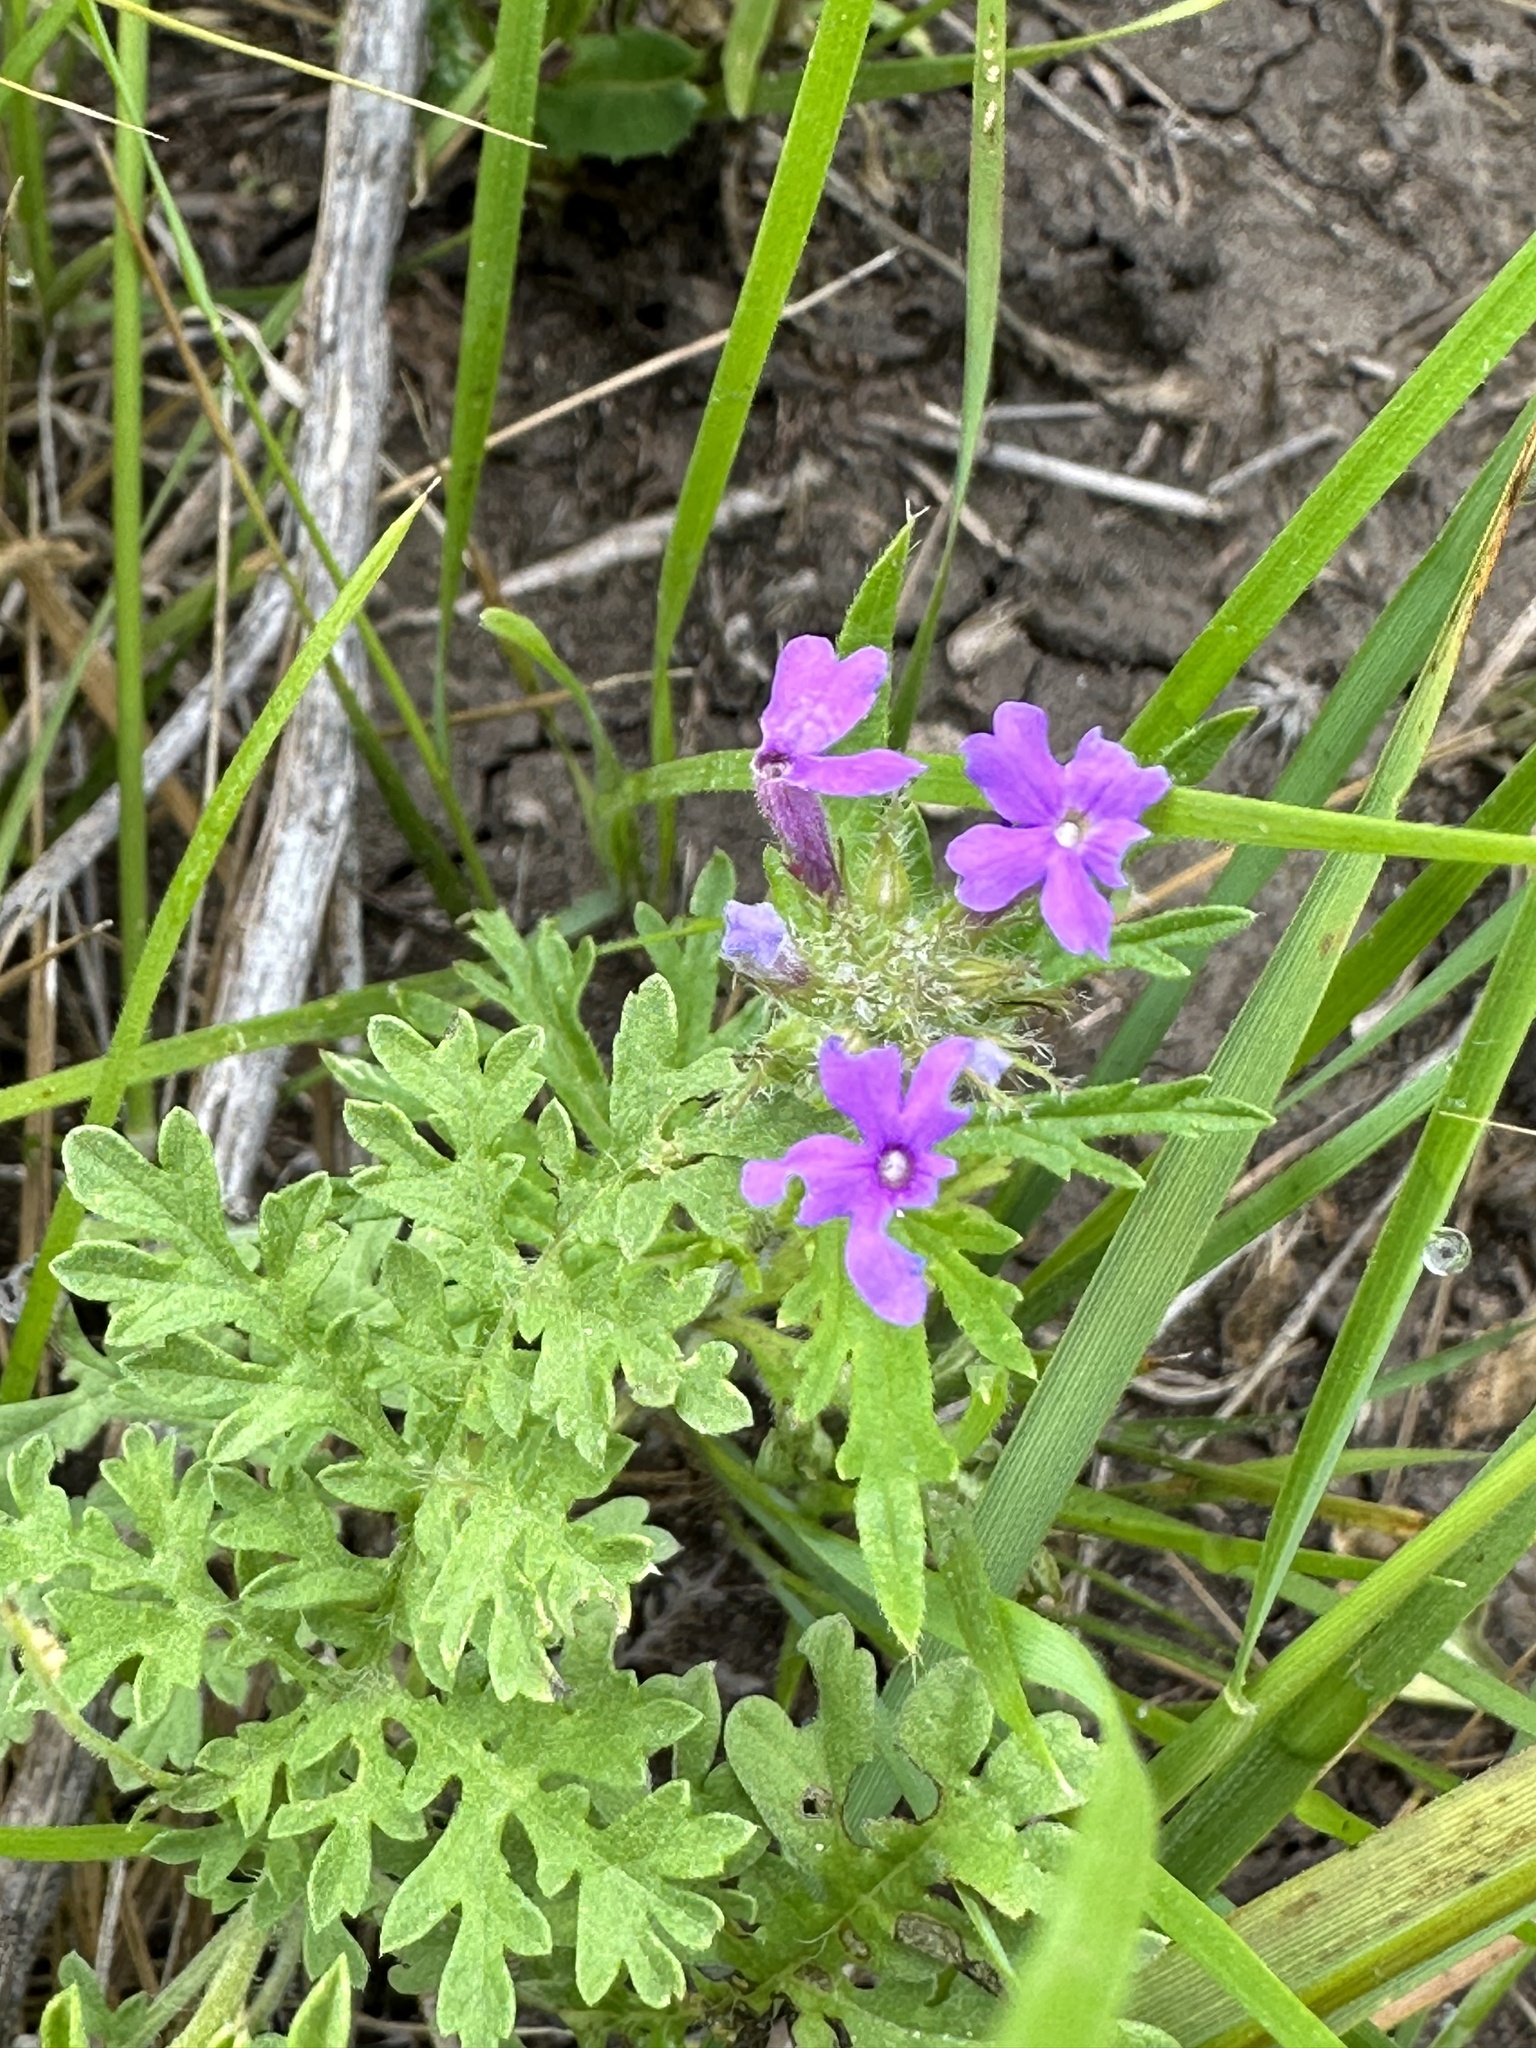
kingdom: Plantae
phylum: Tracheophyta
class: Magnoliopsida
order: Lamiales
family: Verbenaceae
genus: Verbena
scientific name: Verbena bipinnatifida
